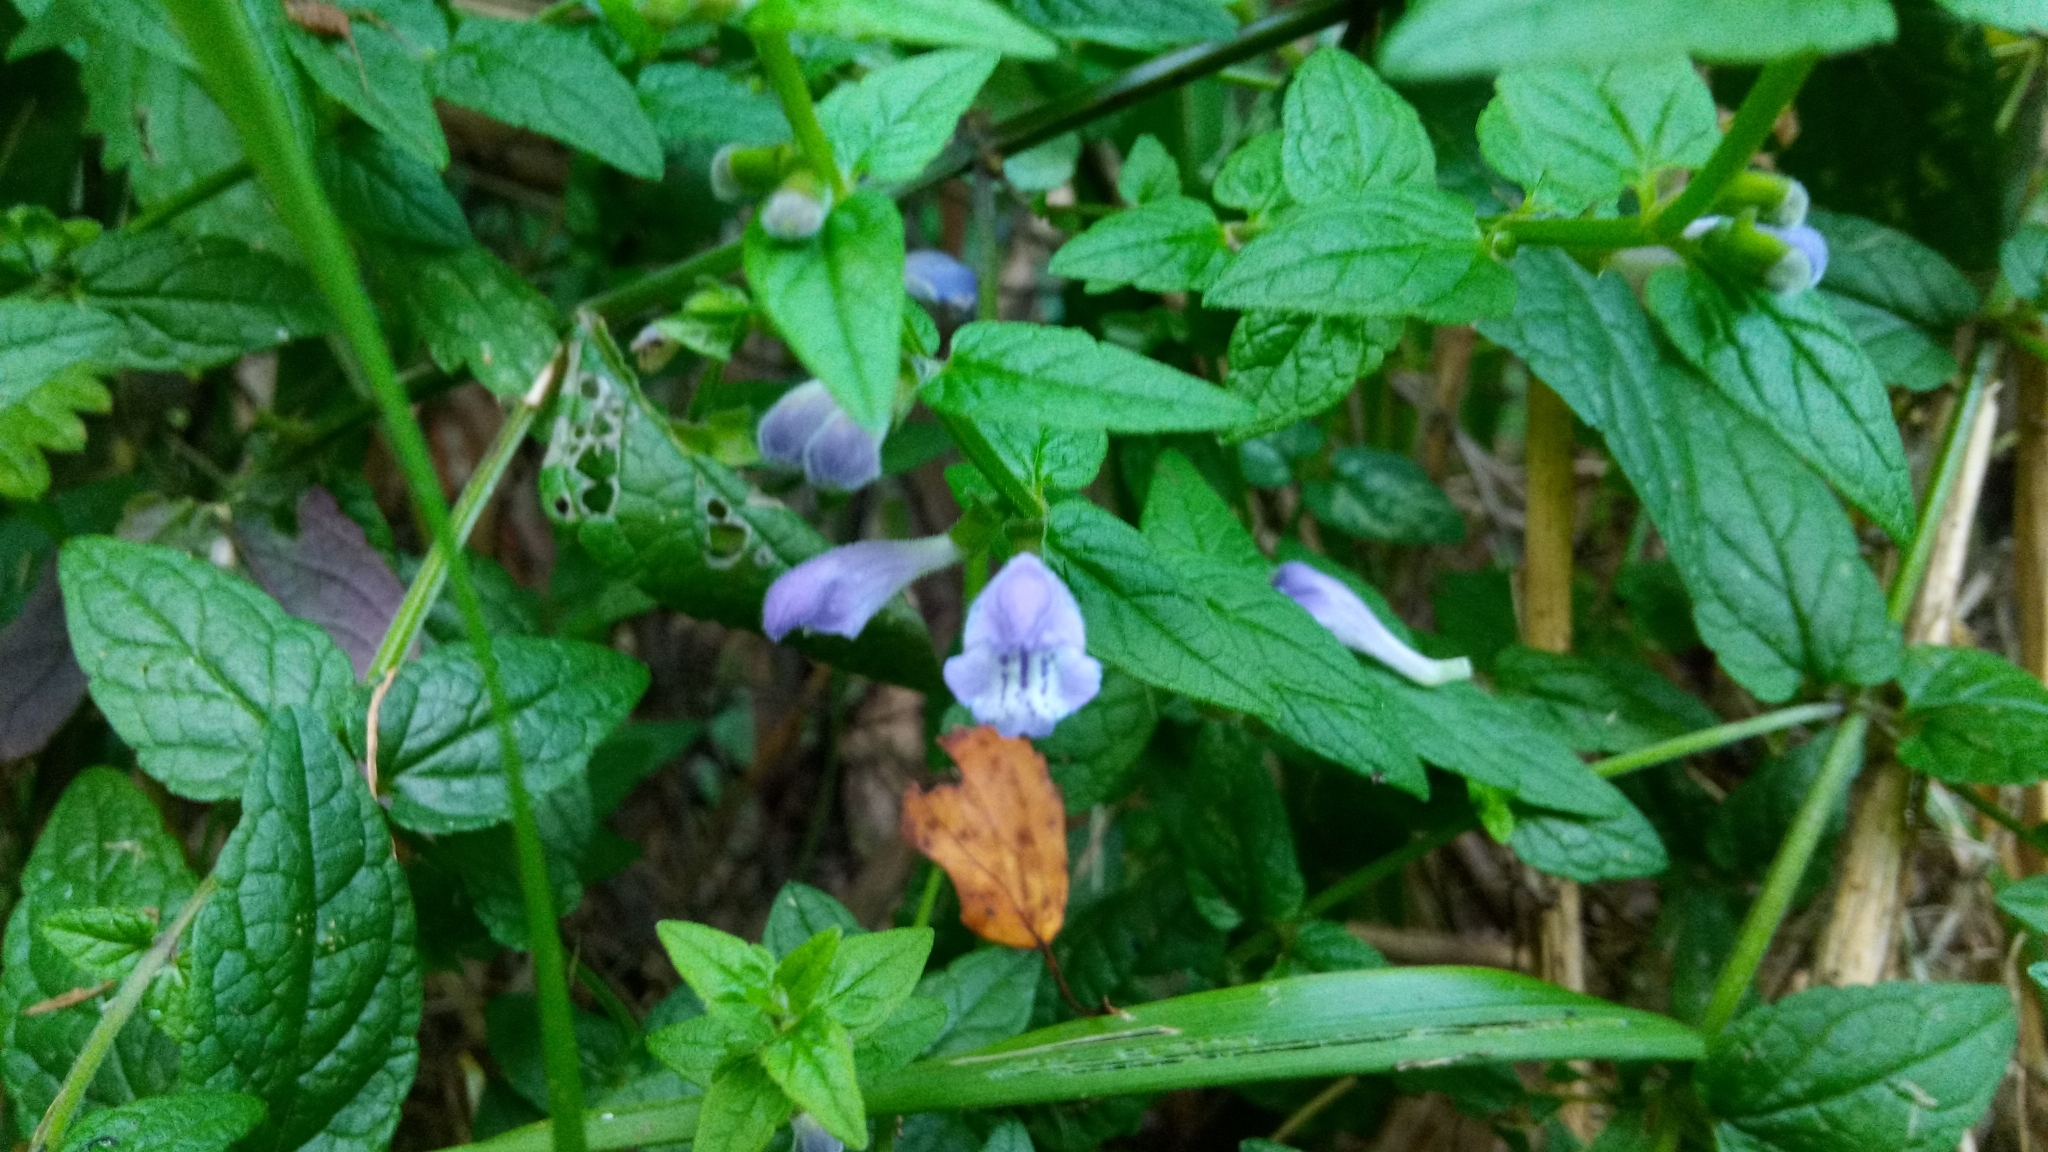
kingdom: Plantae
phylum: Tracheophyta
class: Magnoliopsida
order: Lamiales
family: Lamiaceae
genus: Scutellaria
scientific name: Scutellaria galericulata
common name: Skullcap
